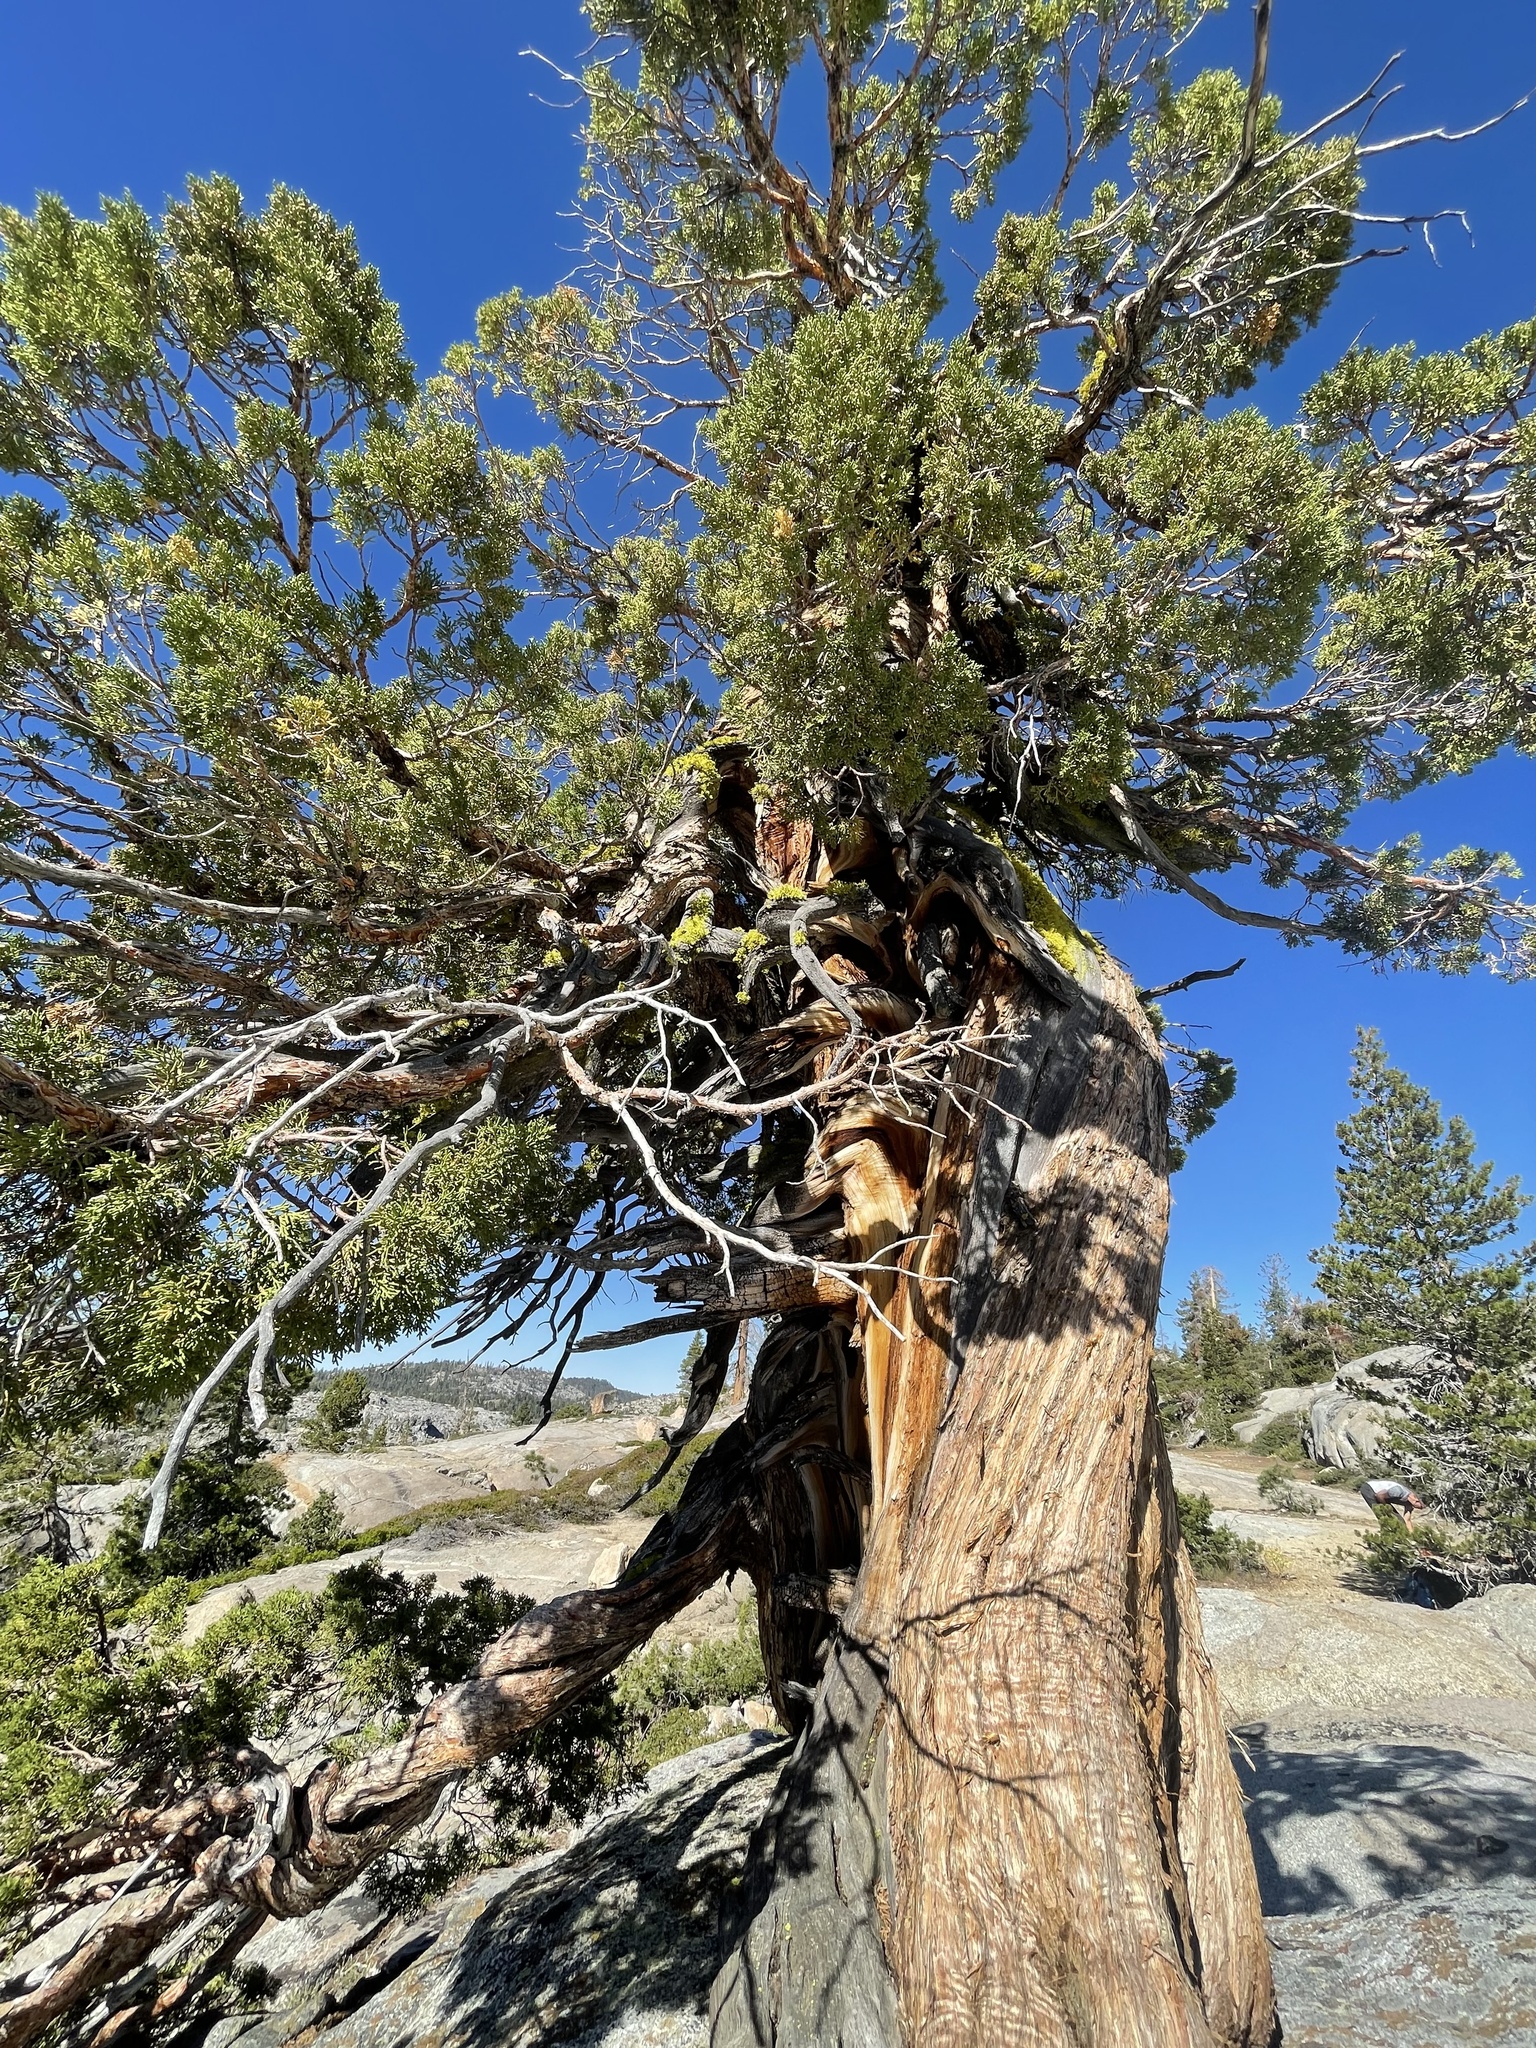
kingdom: Plantae
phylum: Tracheophyta
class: Pinopsida
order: Pinales
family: Cupressaceae
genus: Juniperus
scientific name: Juniperus occidentalis
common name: Western juniper
